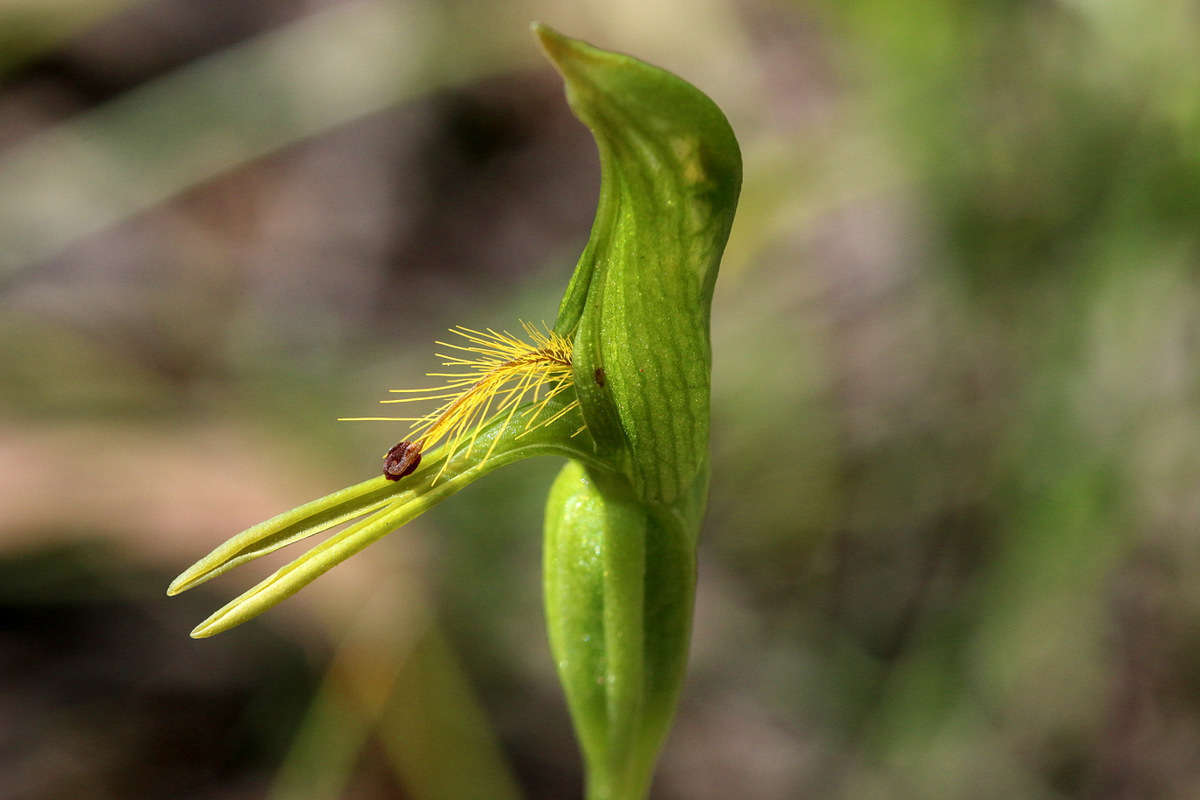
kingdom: Plantae
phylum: Tracheophyta
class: Liliopsida
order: Asparagales
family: Orchidaceae
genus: Pterostylis
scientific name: Pterostylis tasmanica
